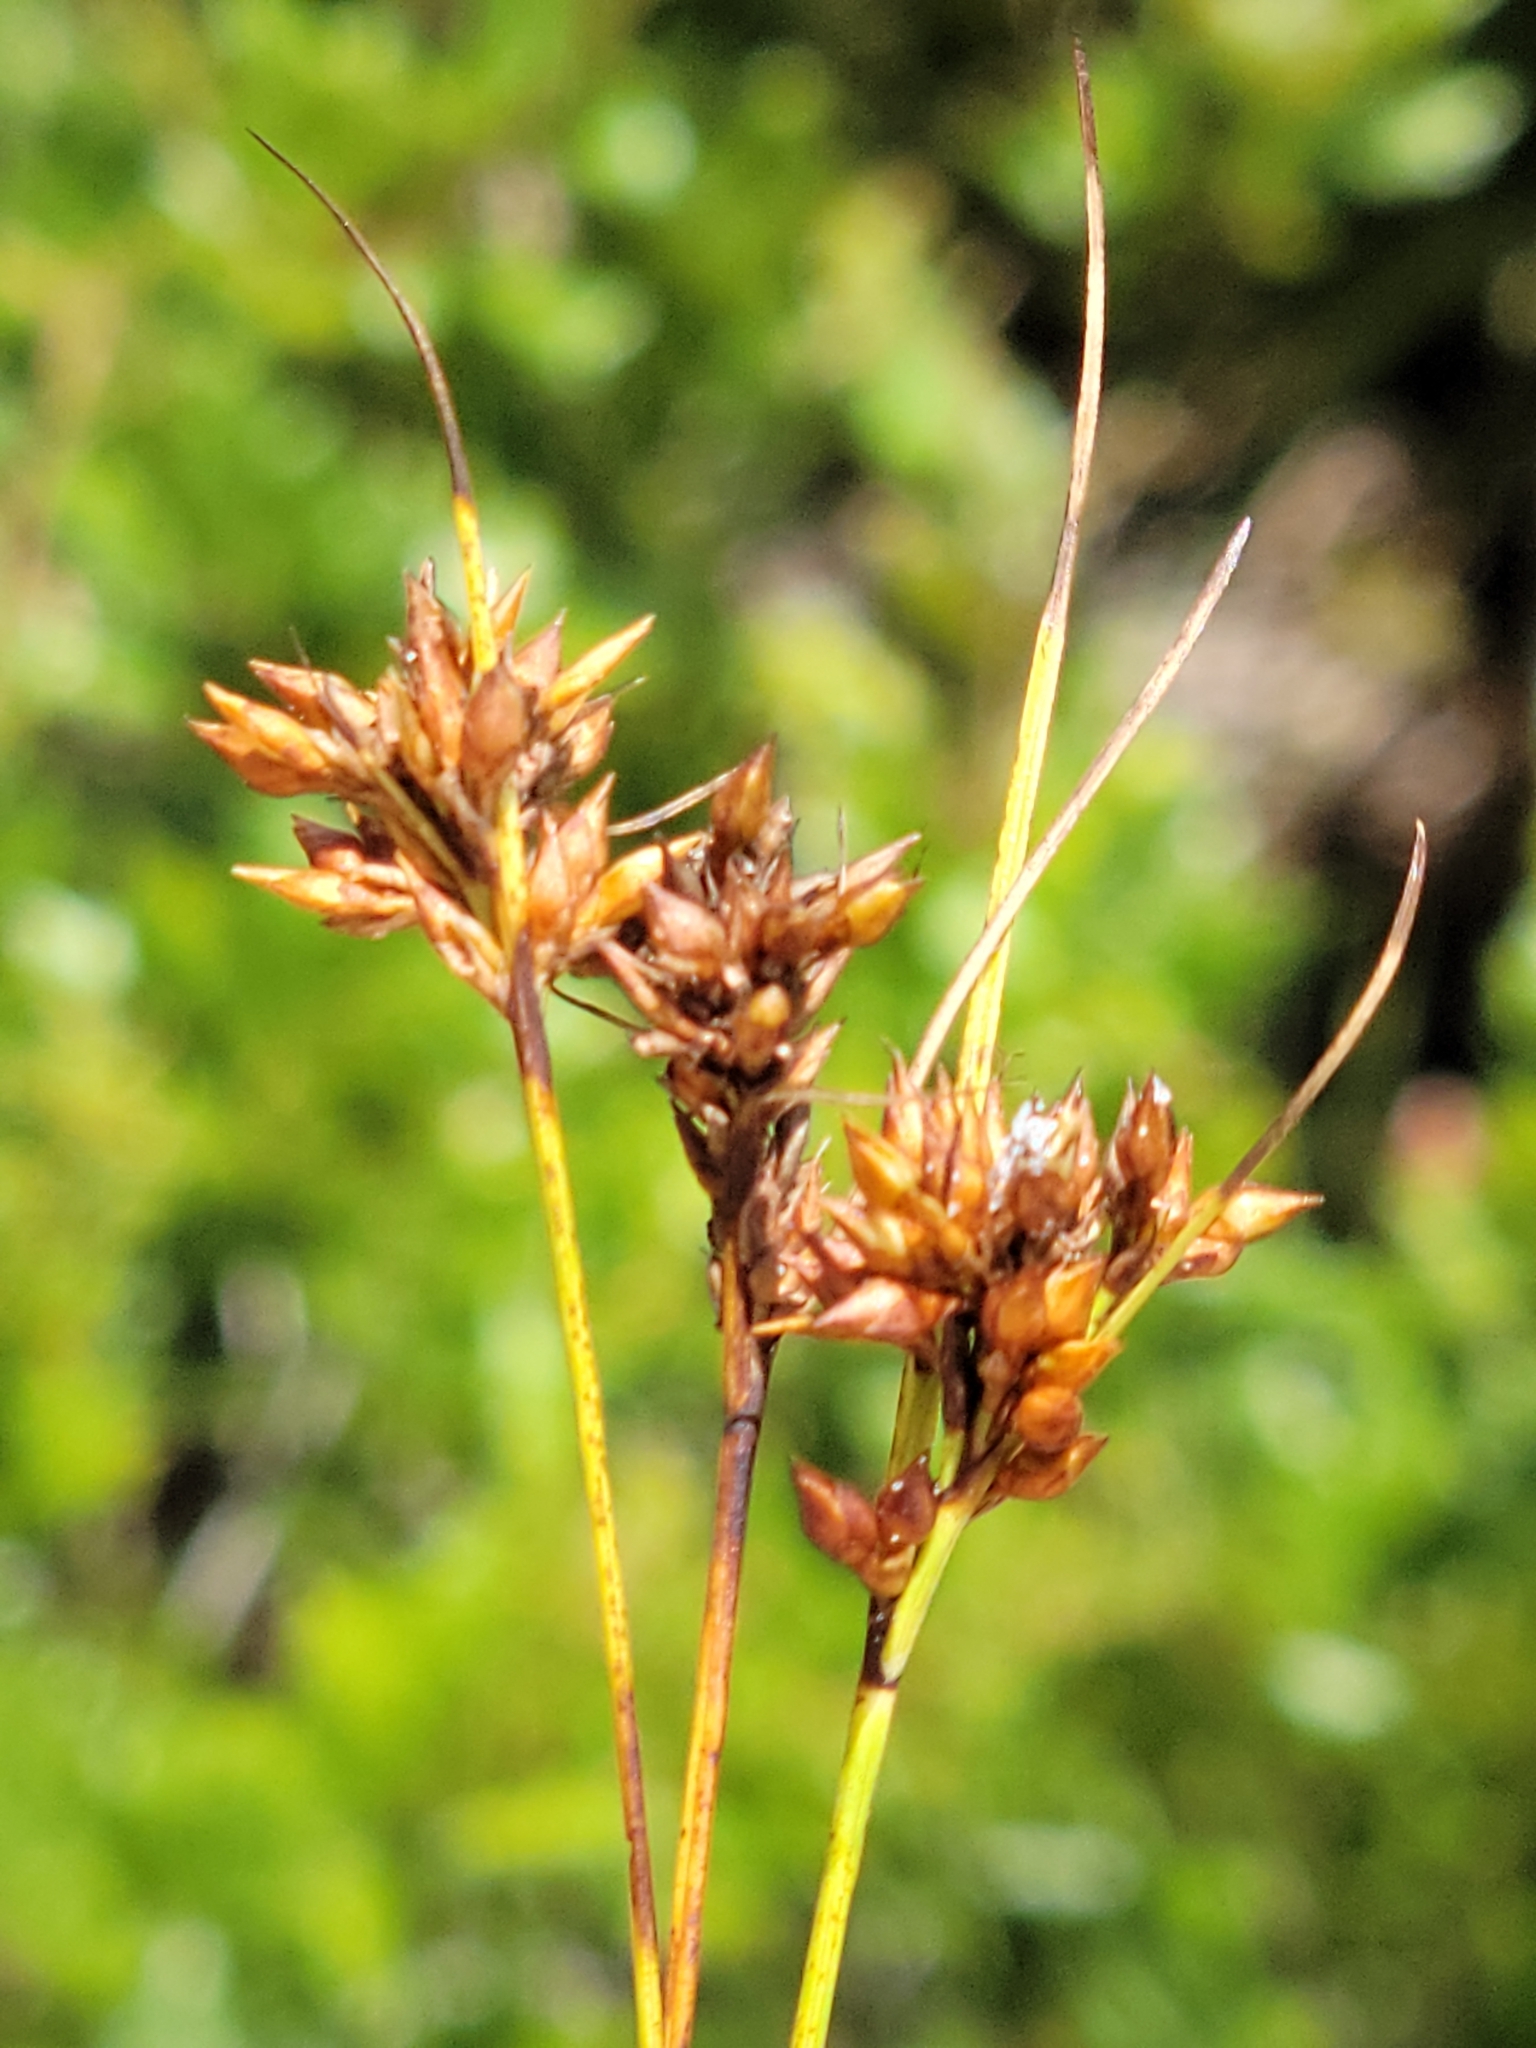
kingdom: Plantae
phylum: Tracheophyta
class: Liliopsida
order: Poales
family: Cyperaceae
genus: Rhynchospora
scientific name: Rhynchospora intermedia
